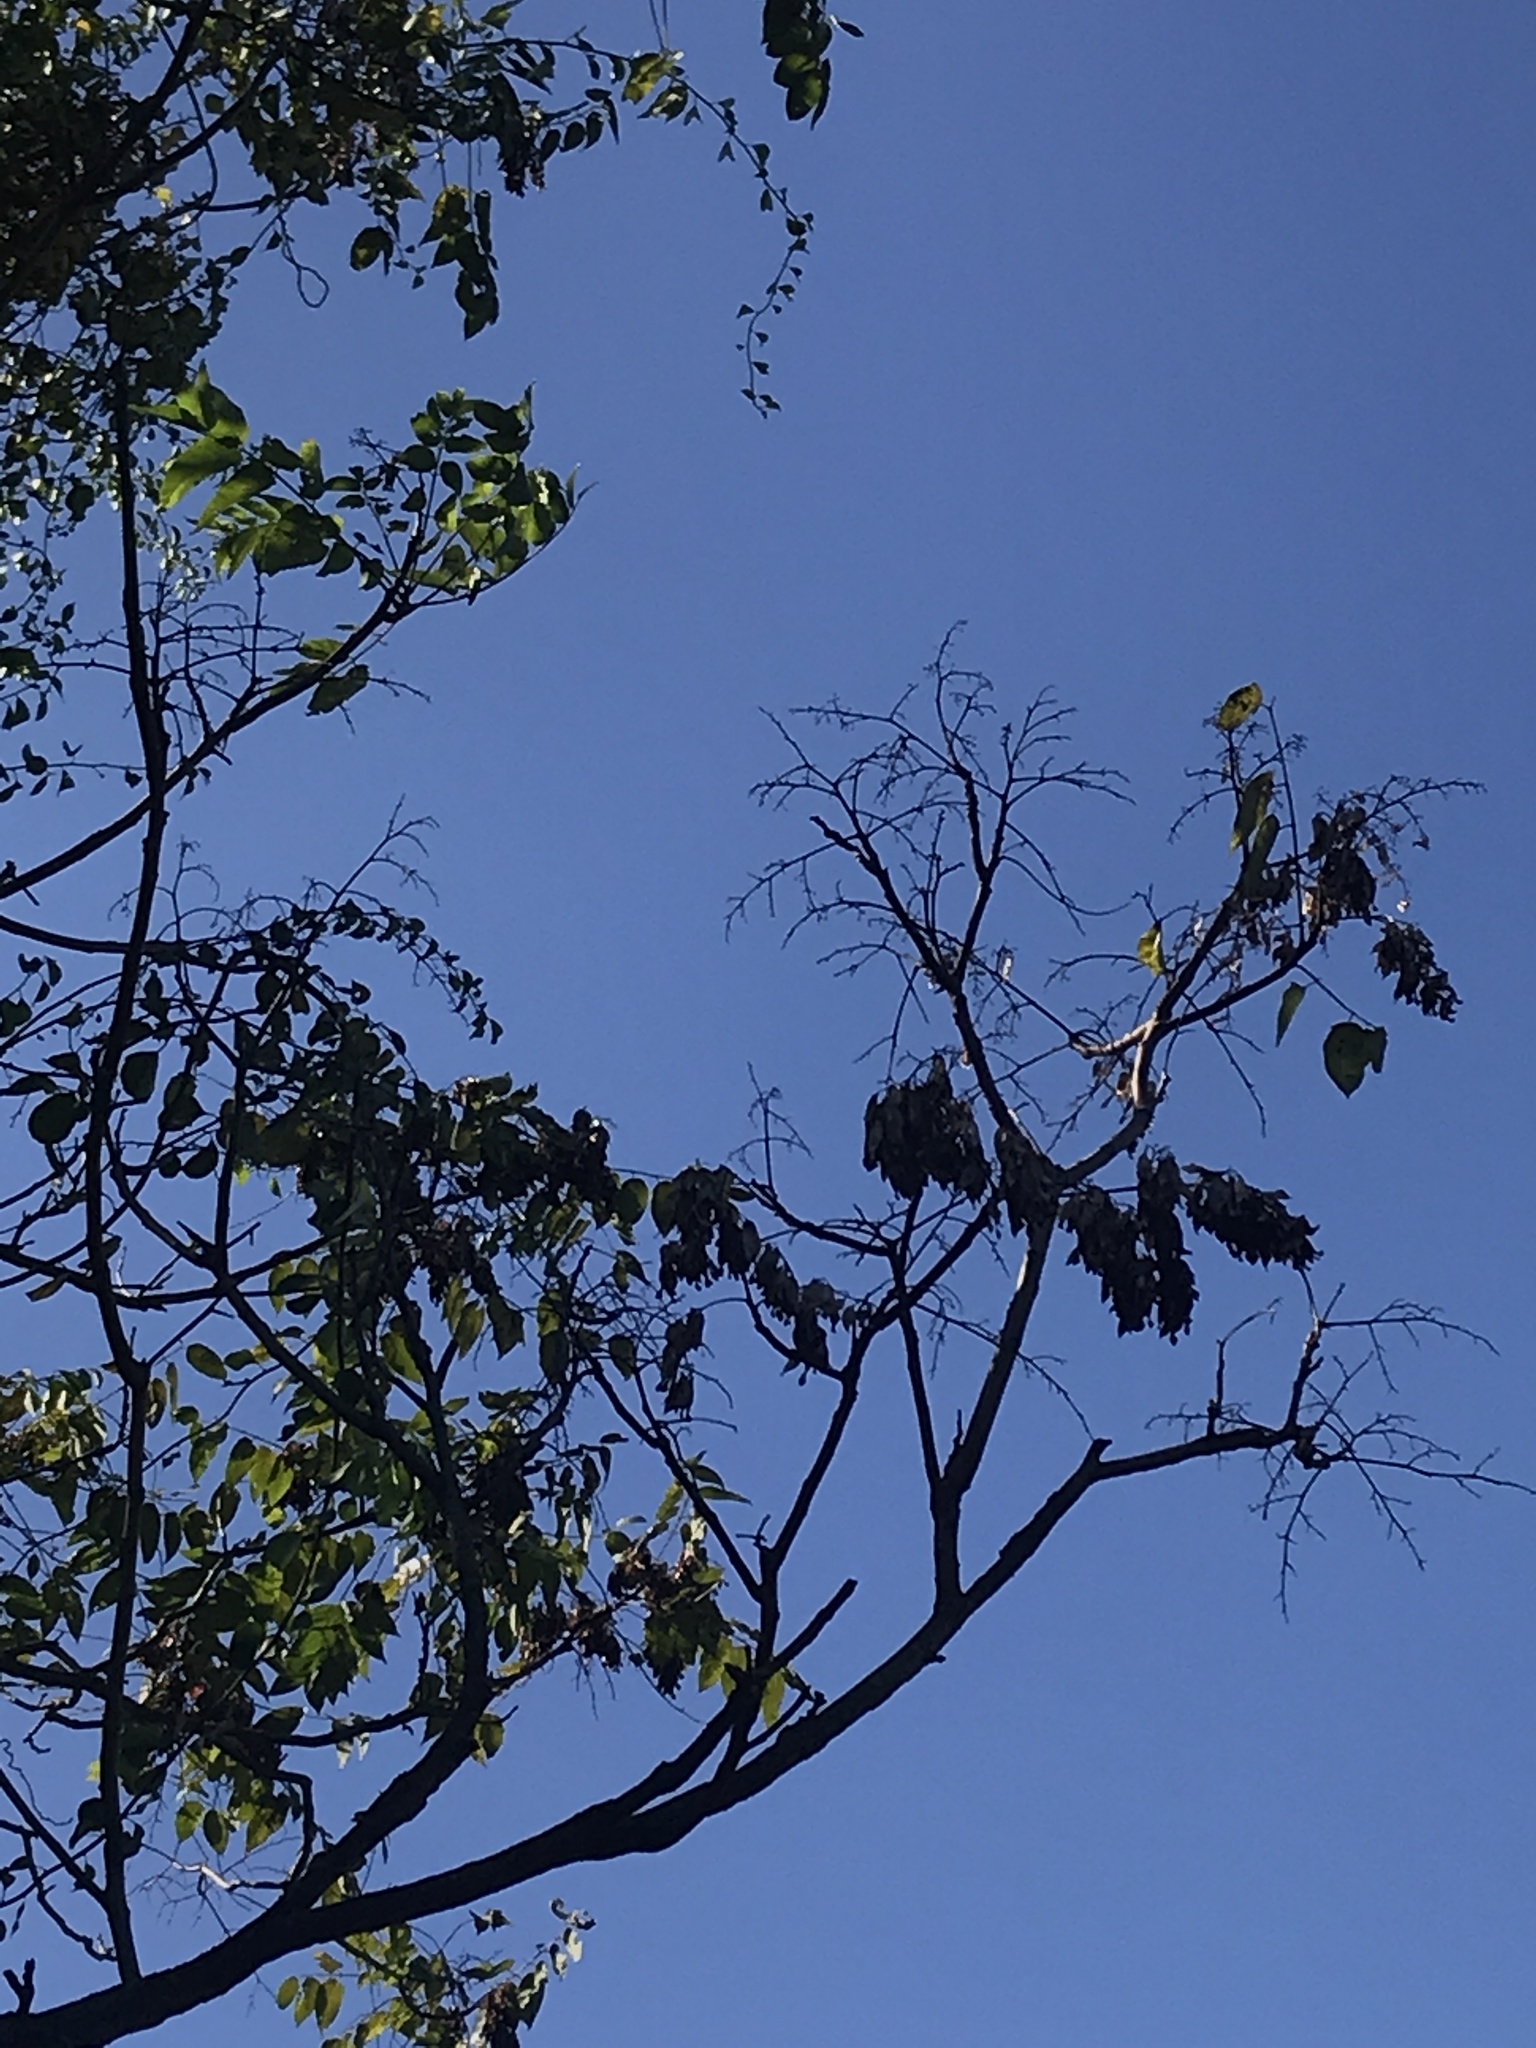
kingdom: Plantae
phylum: Tracheophyta
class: Magnoliopsida
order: Sapindales
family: Simaroubaceae
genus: Ailanthus
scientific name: Ailanthus altissima
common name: Tree-of-heaven
